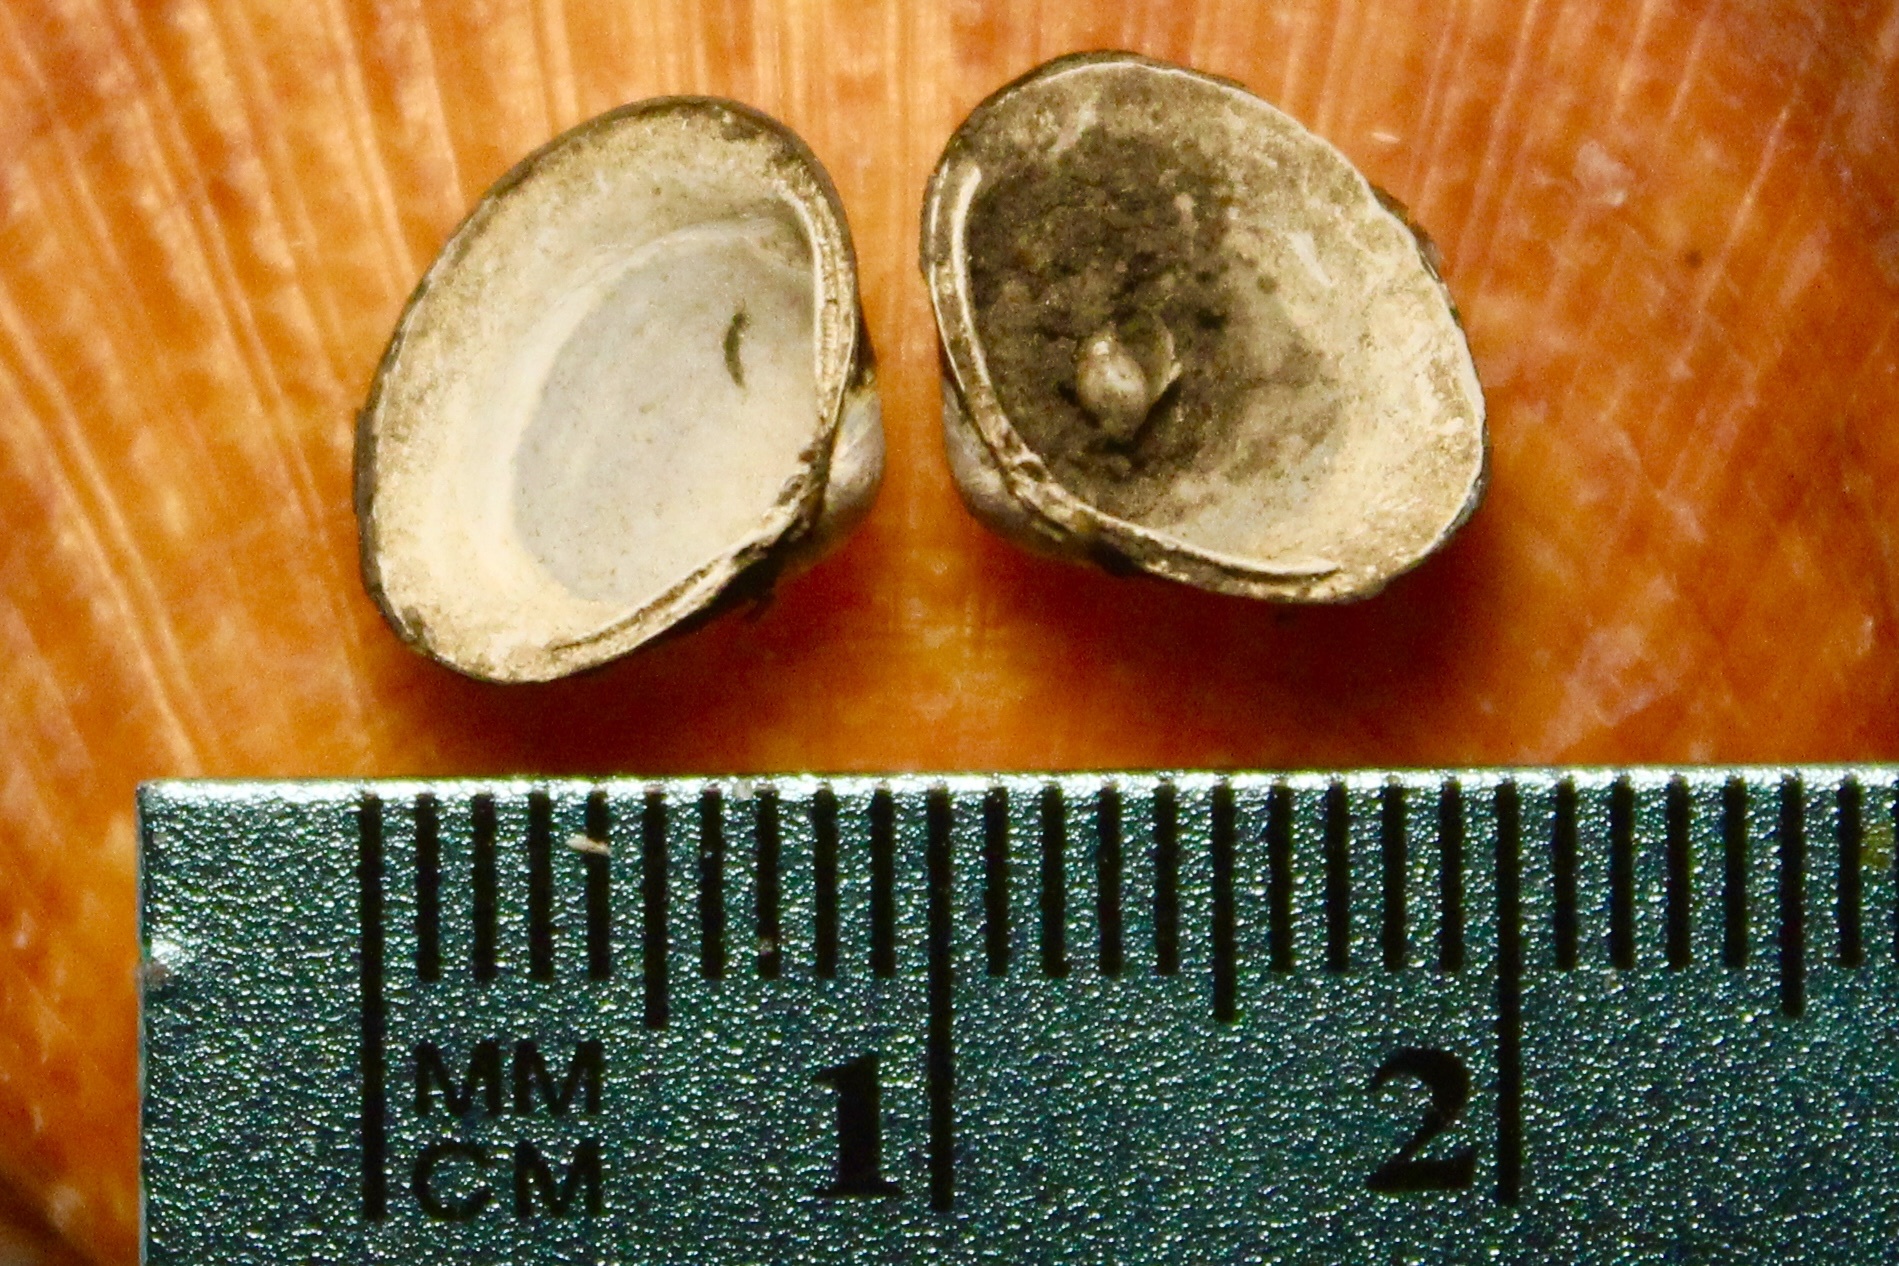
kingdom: Animalia
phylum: Mollusca
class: Bivalvia
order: Venerida
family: Cyrenidae
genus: Corbicula
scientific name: Corbicula fluminea
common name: Asian clam
